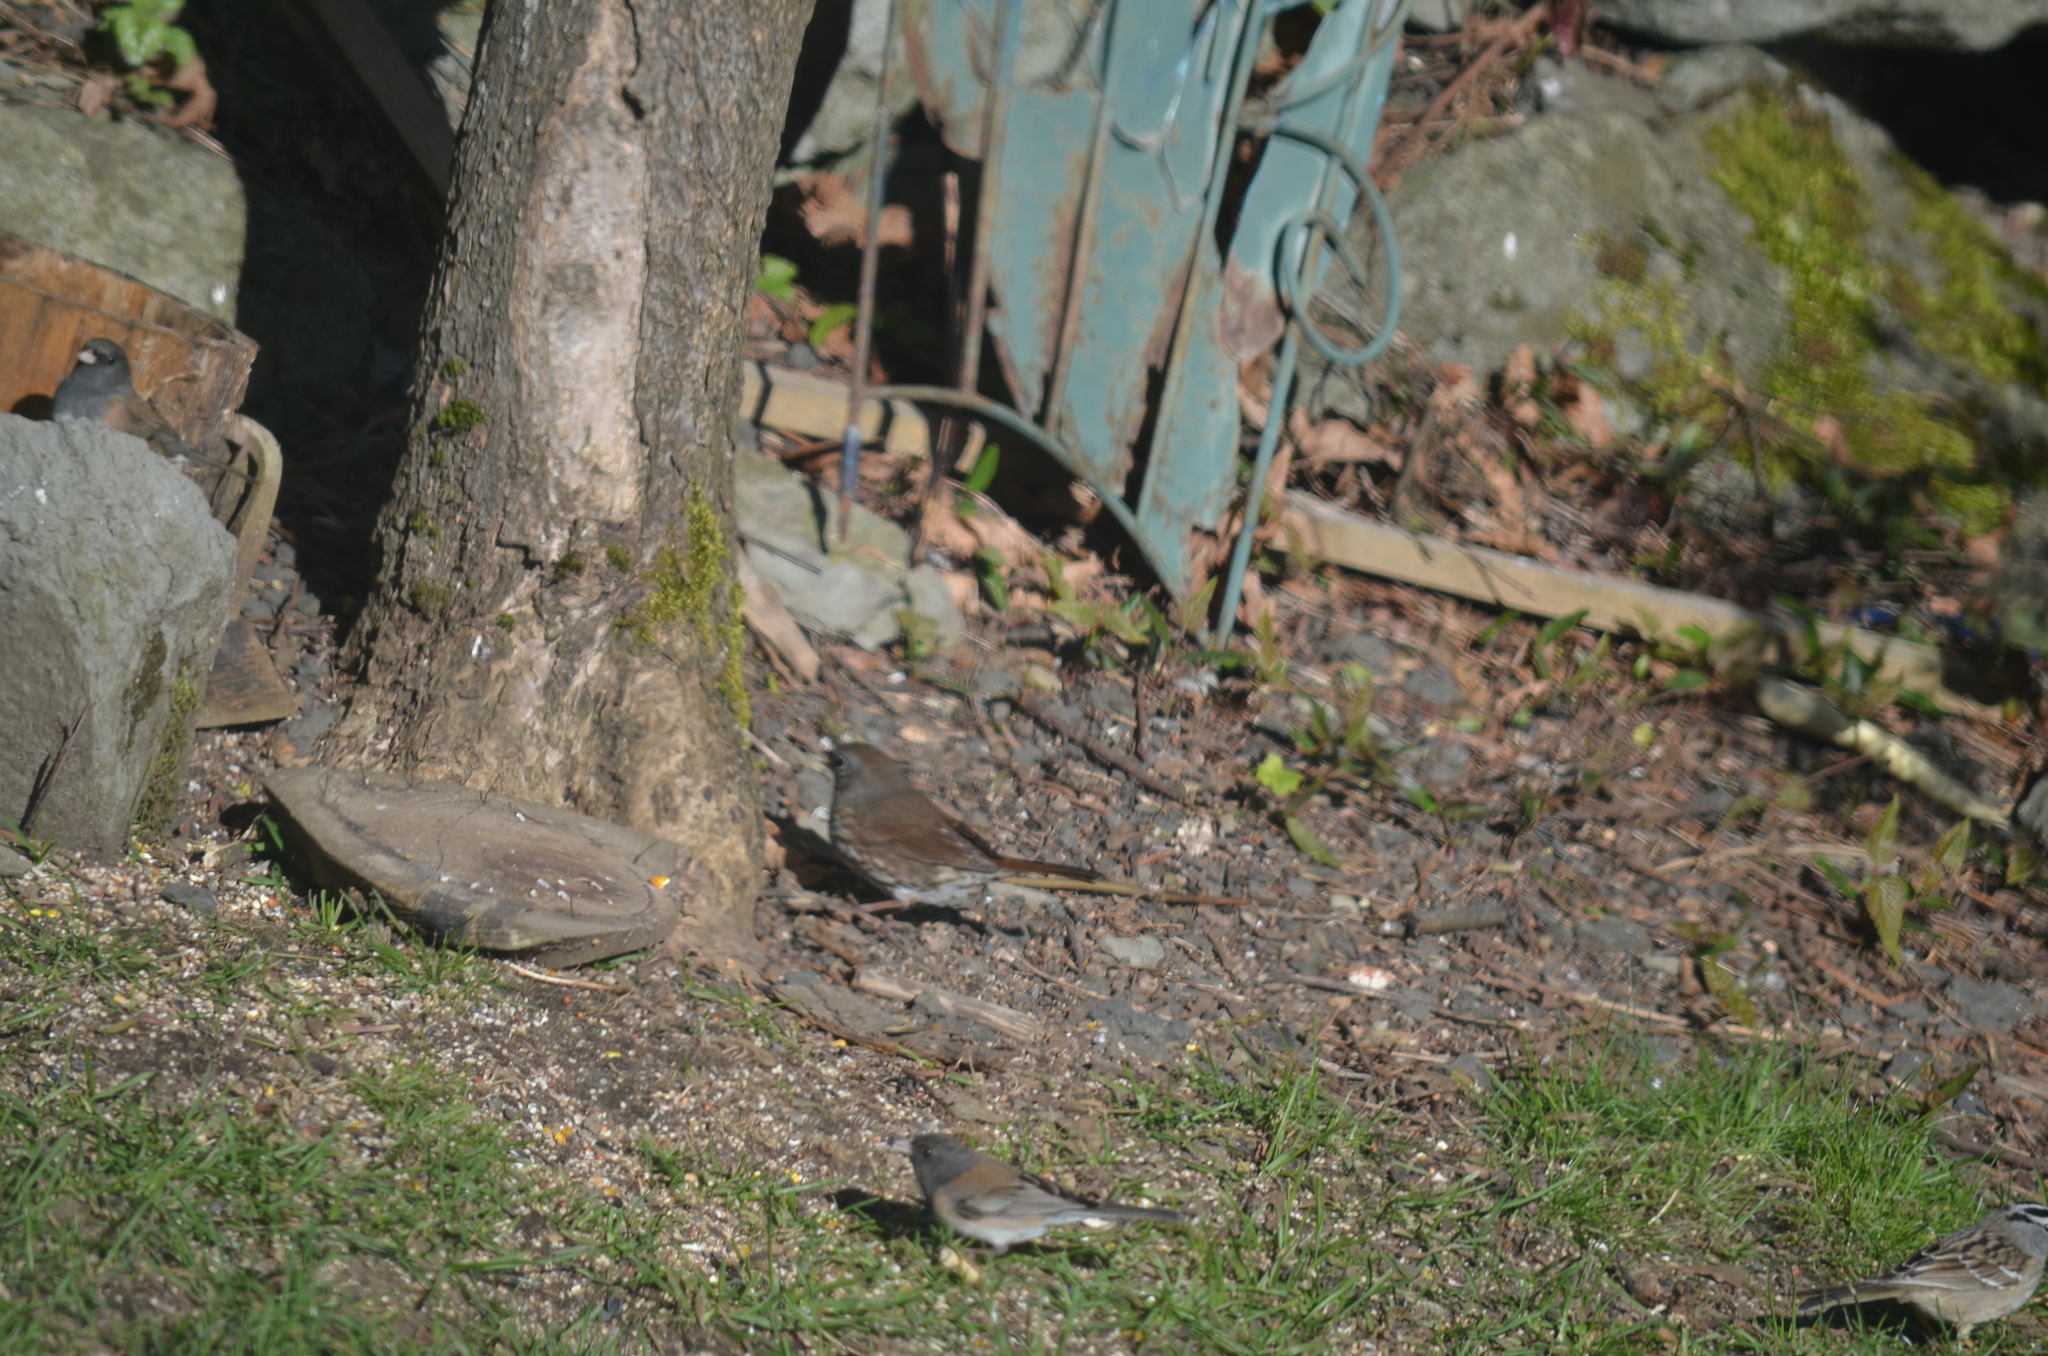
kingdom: Animalia
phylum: Chordata
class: Aves
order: Passeriformes
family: Passerellidae
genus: Passerella
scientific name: Passerella iliaca
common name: Fox sparrow
